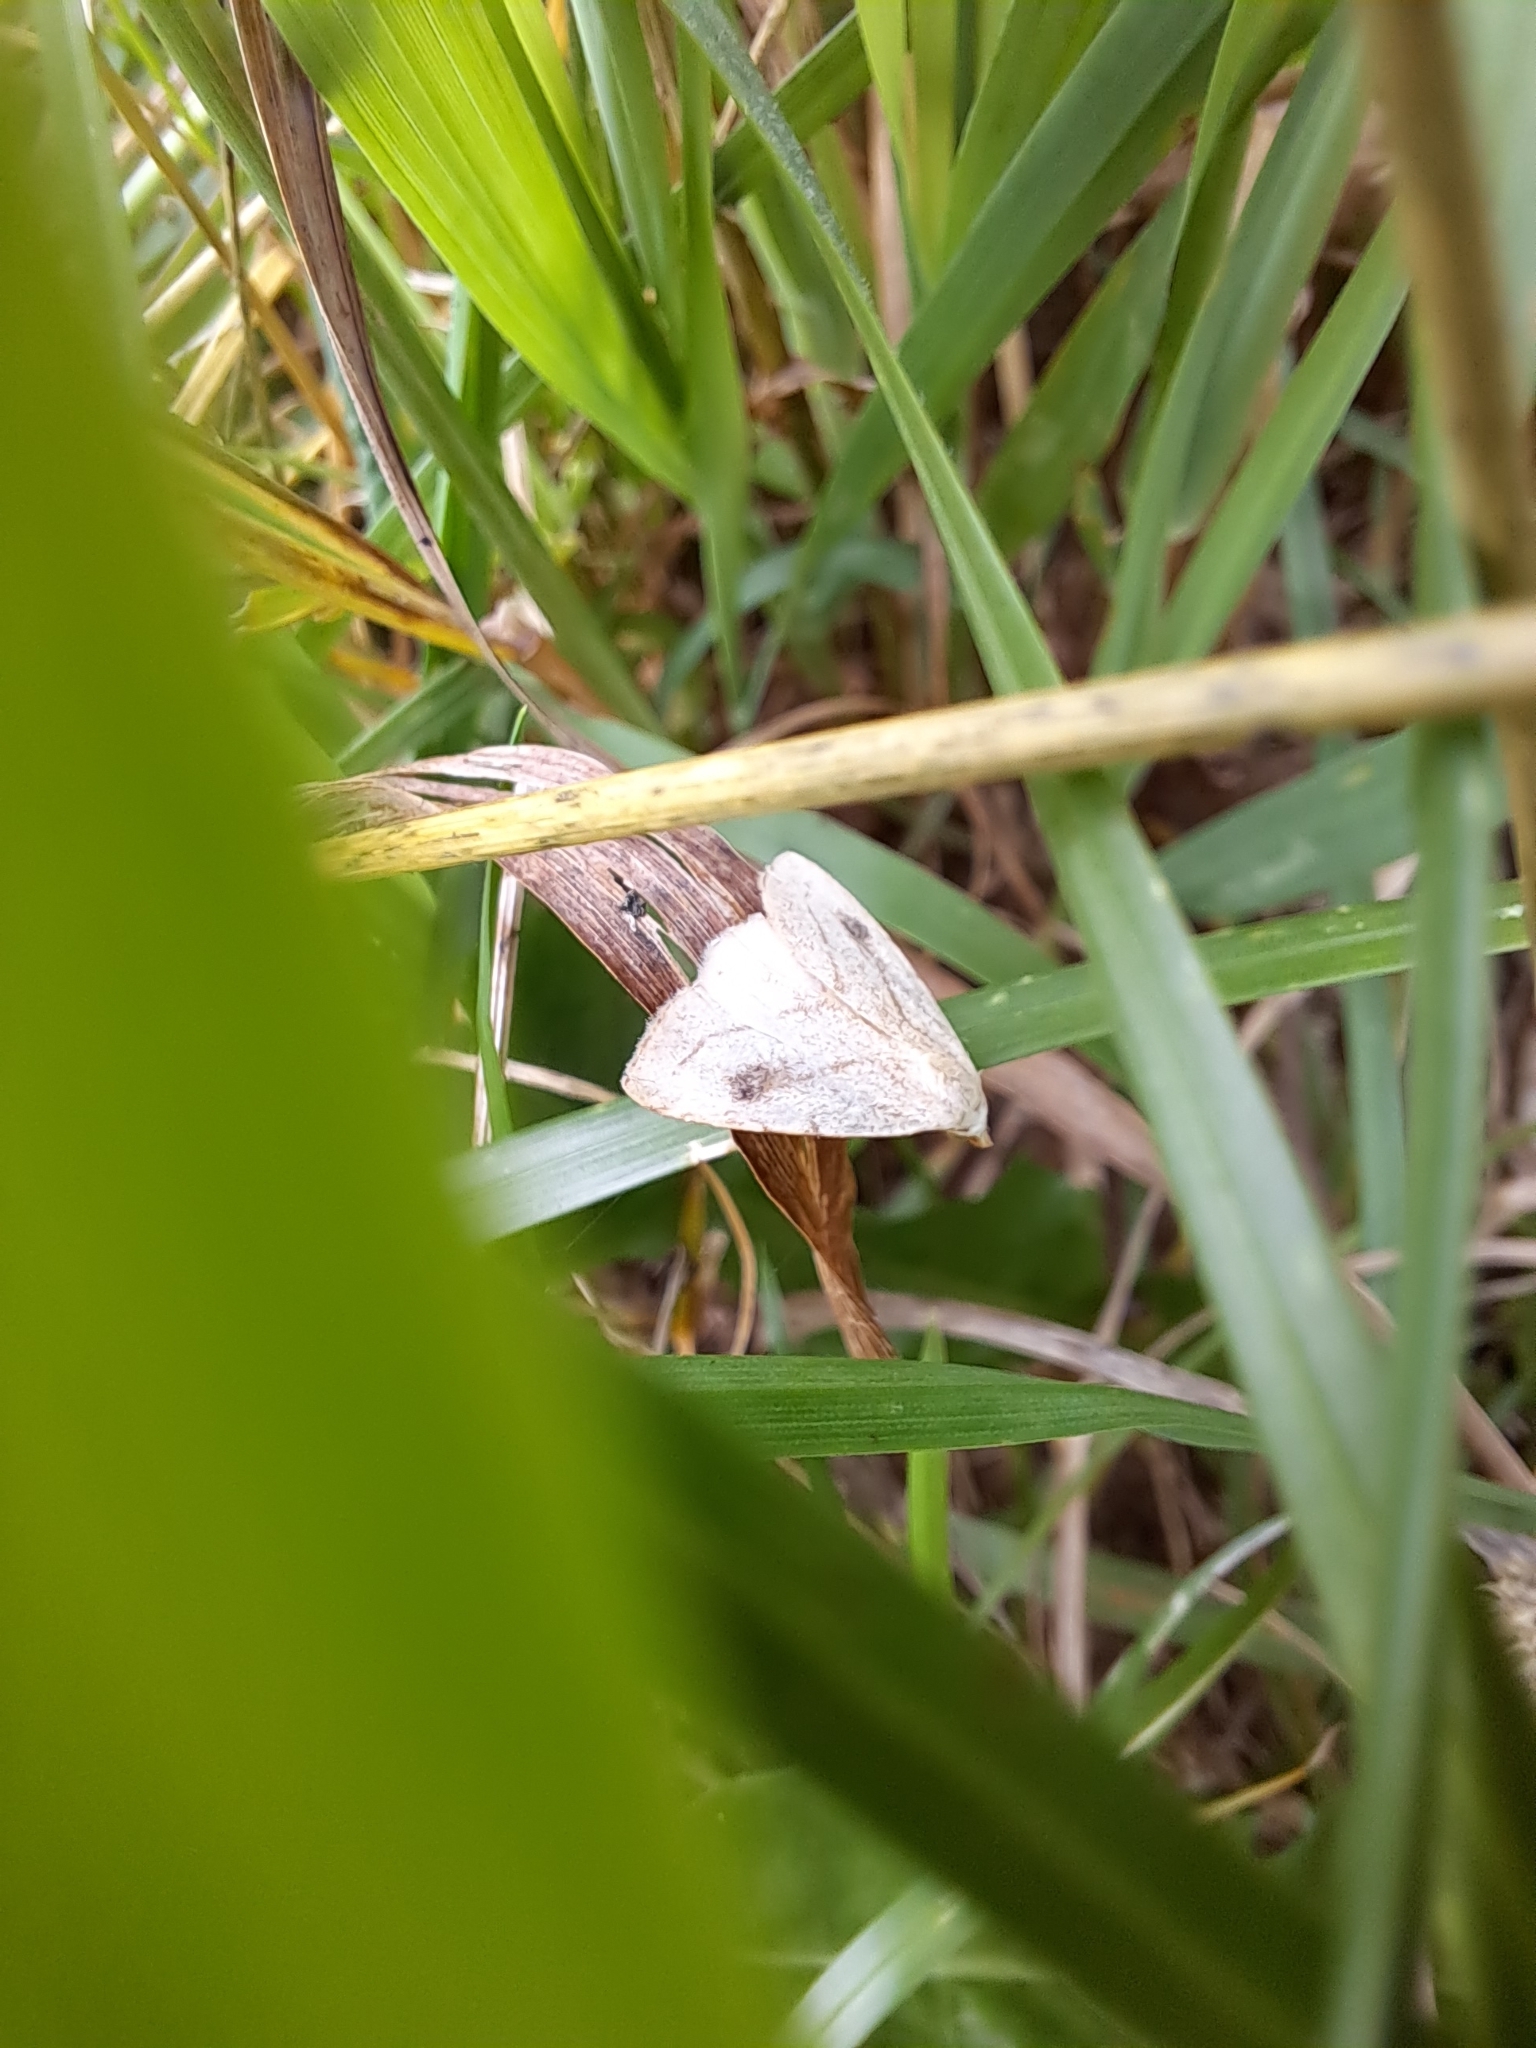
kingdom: Animalia
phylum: Arthropoda
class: Insecta
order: Lepidoptera
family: Erebidae
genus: Rivula
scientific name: Rivula propinqualis
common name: Spotted grass moth
